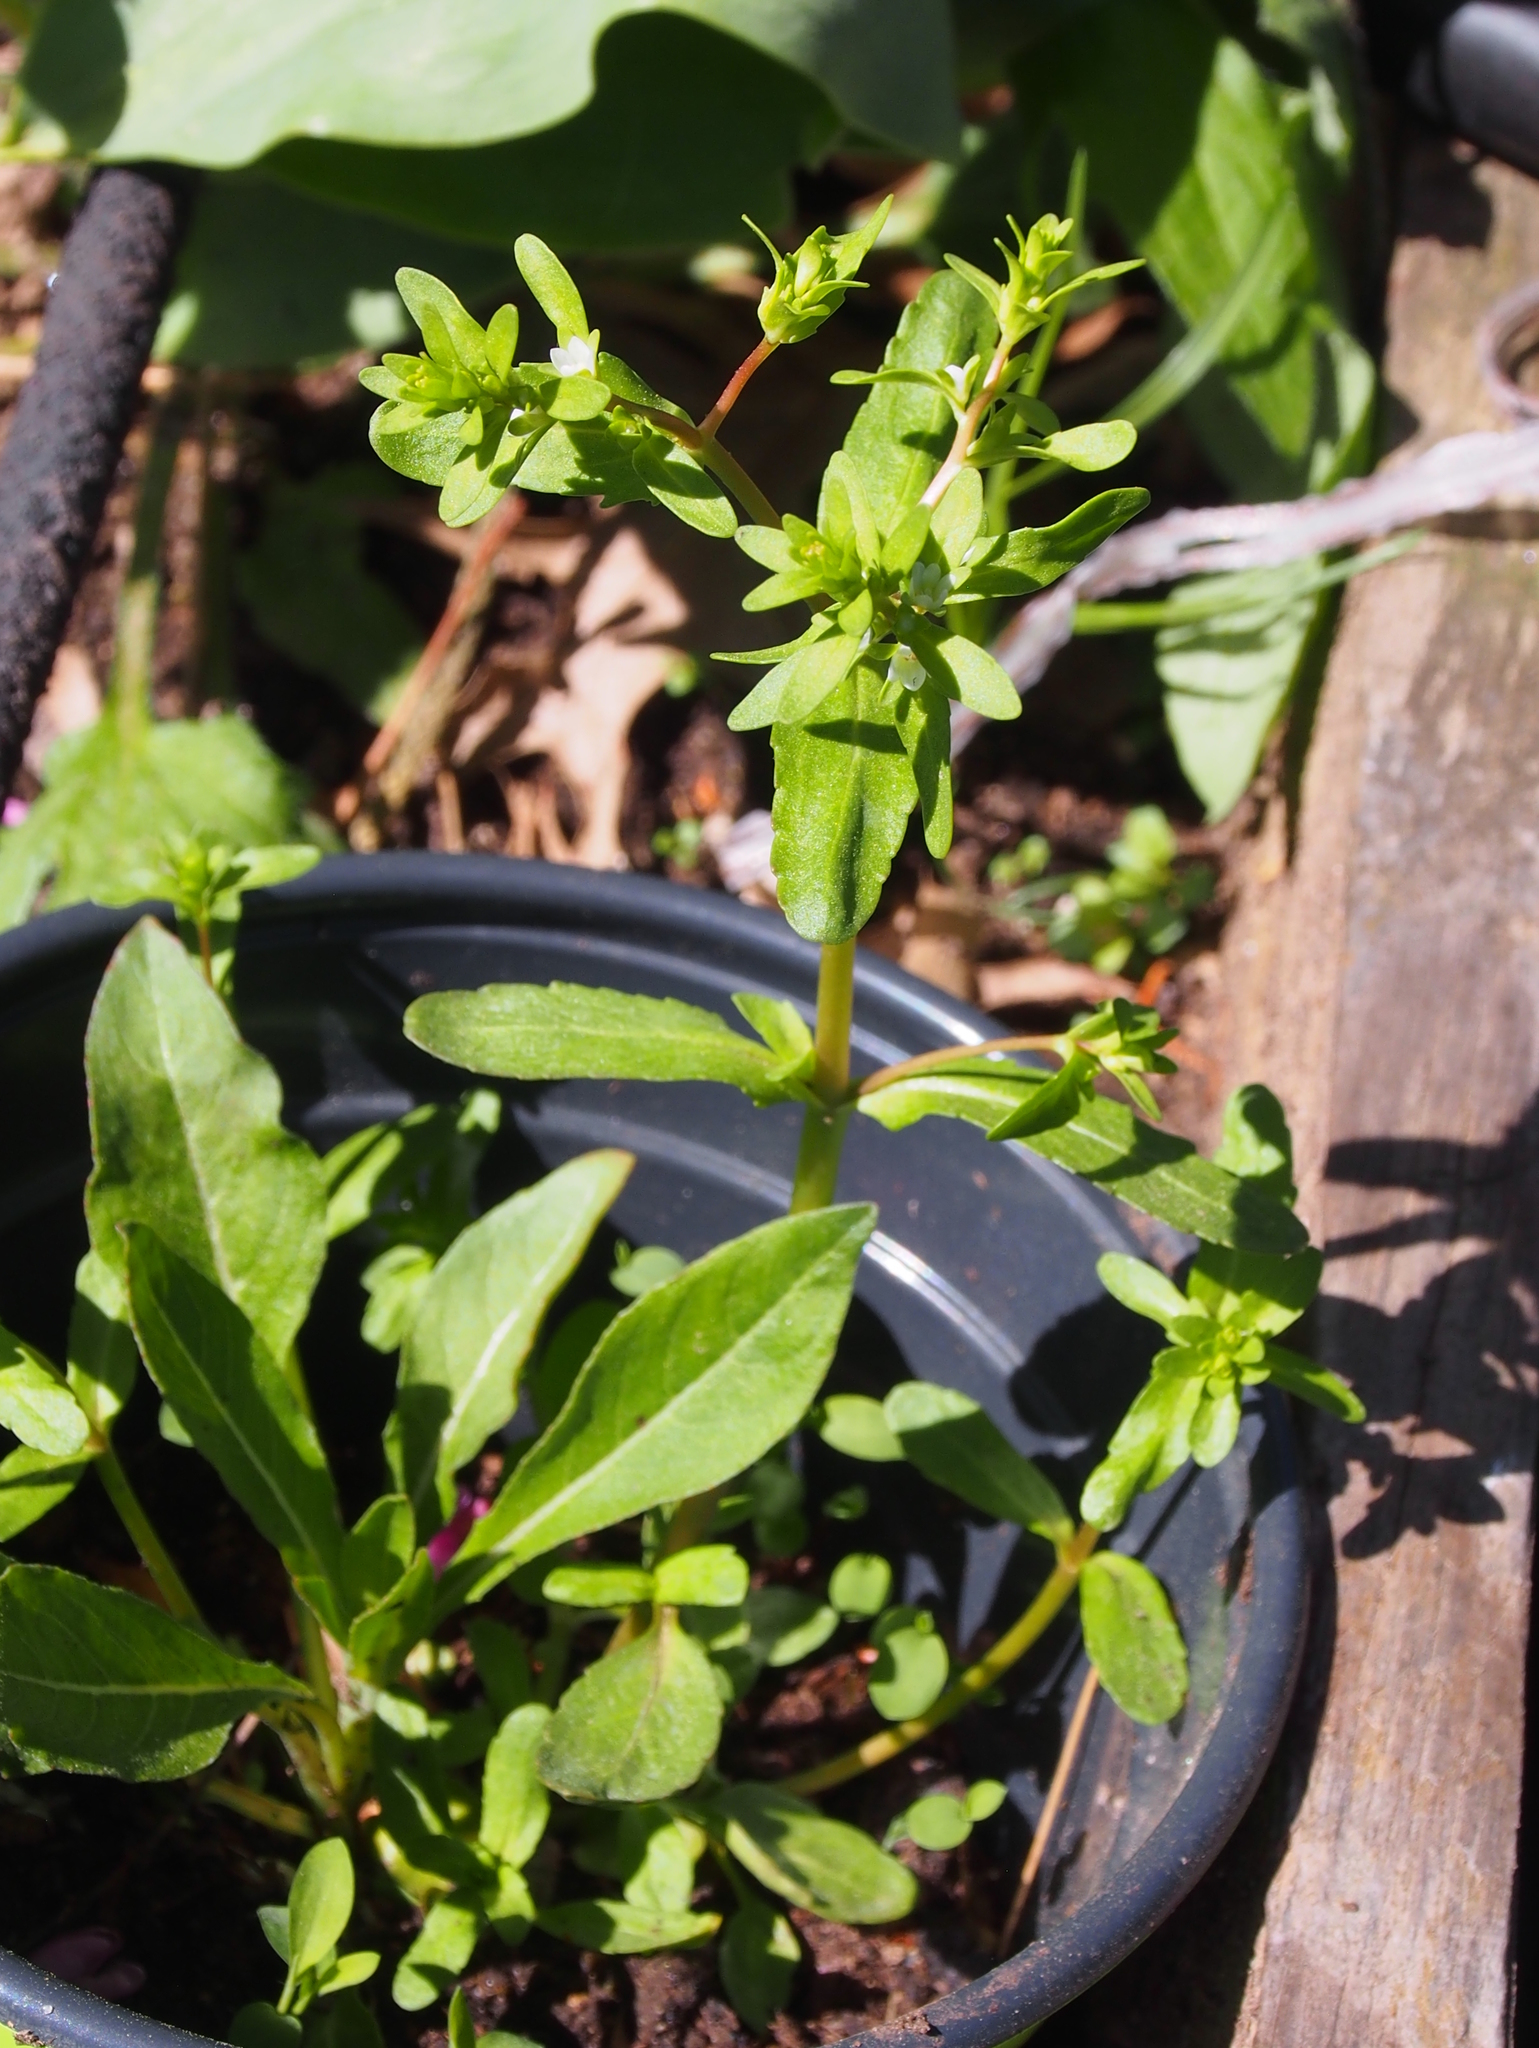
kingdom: Plantae
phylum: Tracheophyta
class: Magnoliopsida
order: Lamiales
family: Plantaginaceae
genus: Veronica
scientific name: Veronica peregrina
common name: Neckweed
